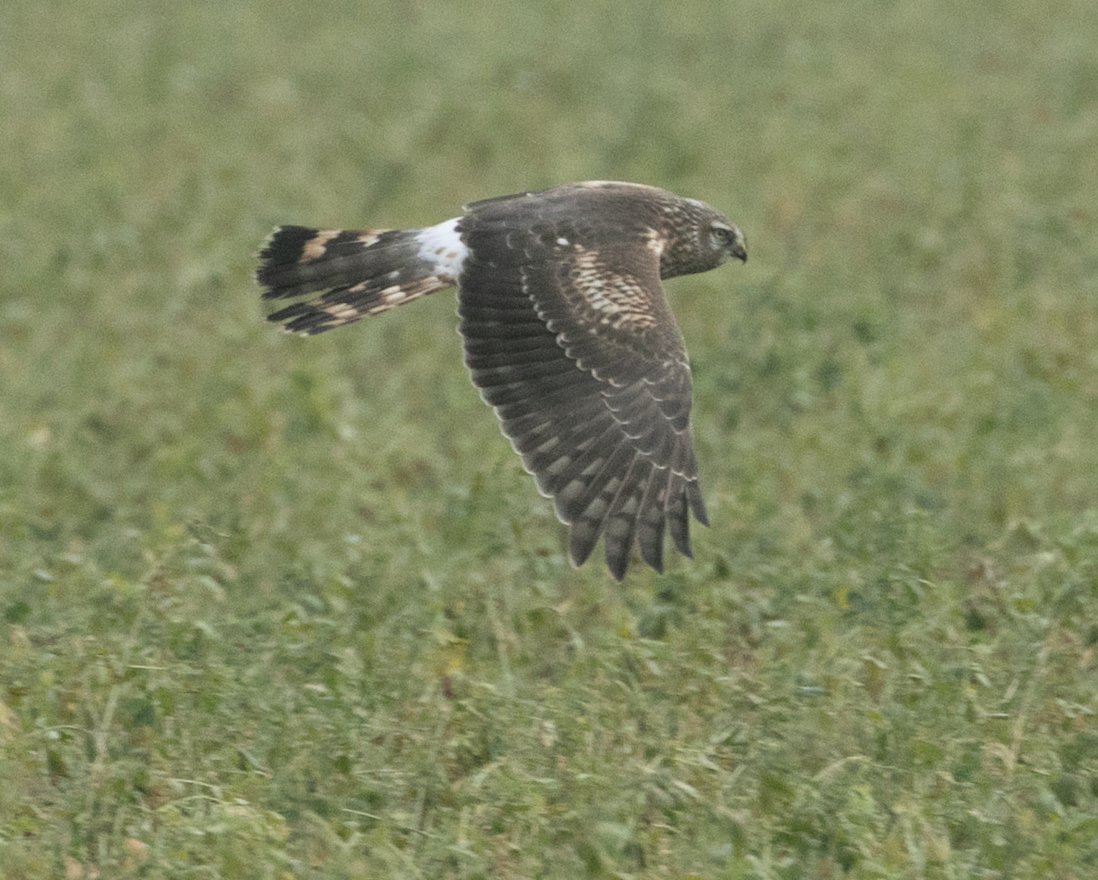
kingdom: Animalia
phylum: Chordata
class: Aves
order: Accipitriformes
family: Accipitridae
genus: Circus
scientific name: Circus cyaneus
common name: Hen harrier
